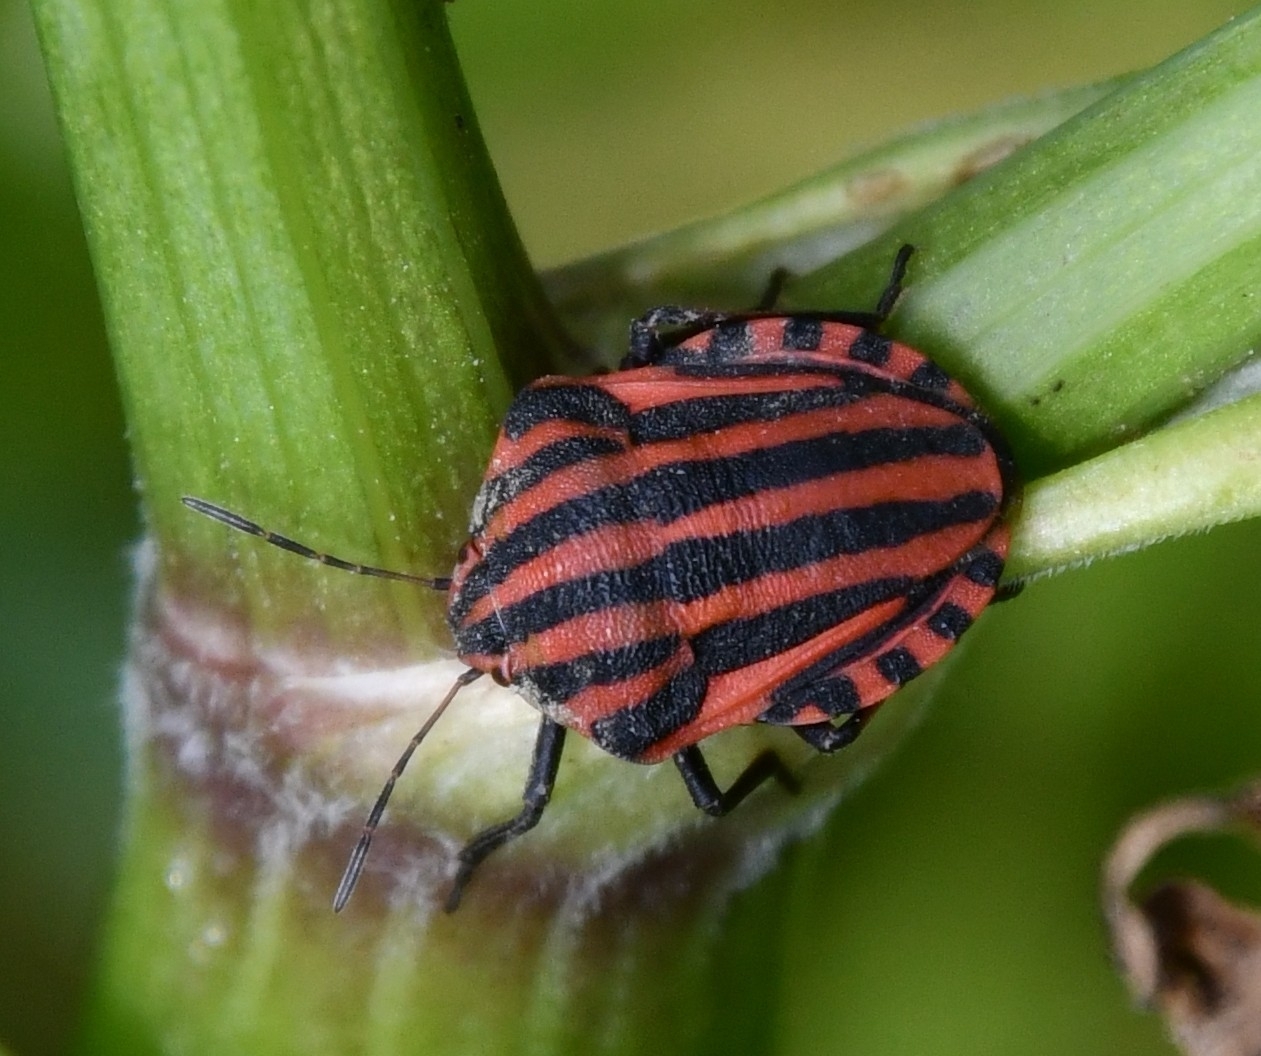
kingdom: Animalia
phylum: Arthropoda
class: Insecta
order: Hemiptera
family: Pentatomidae
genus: Graphosoma
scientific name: Graphosoma italicum
